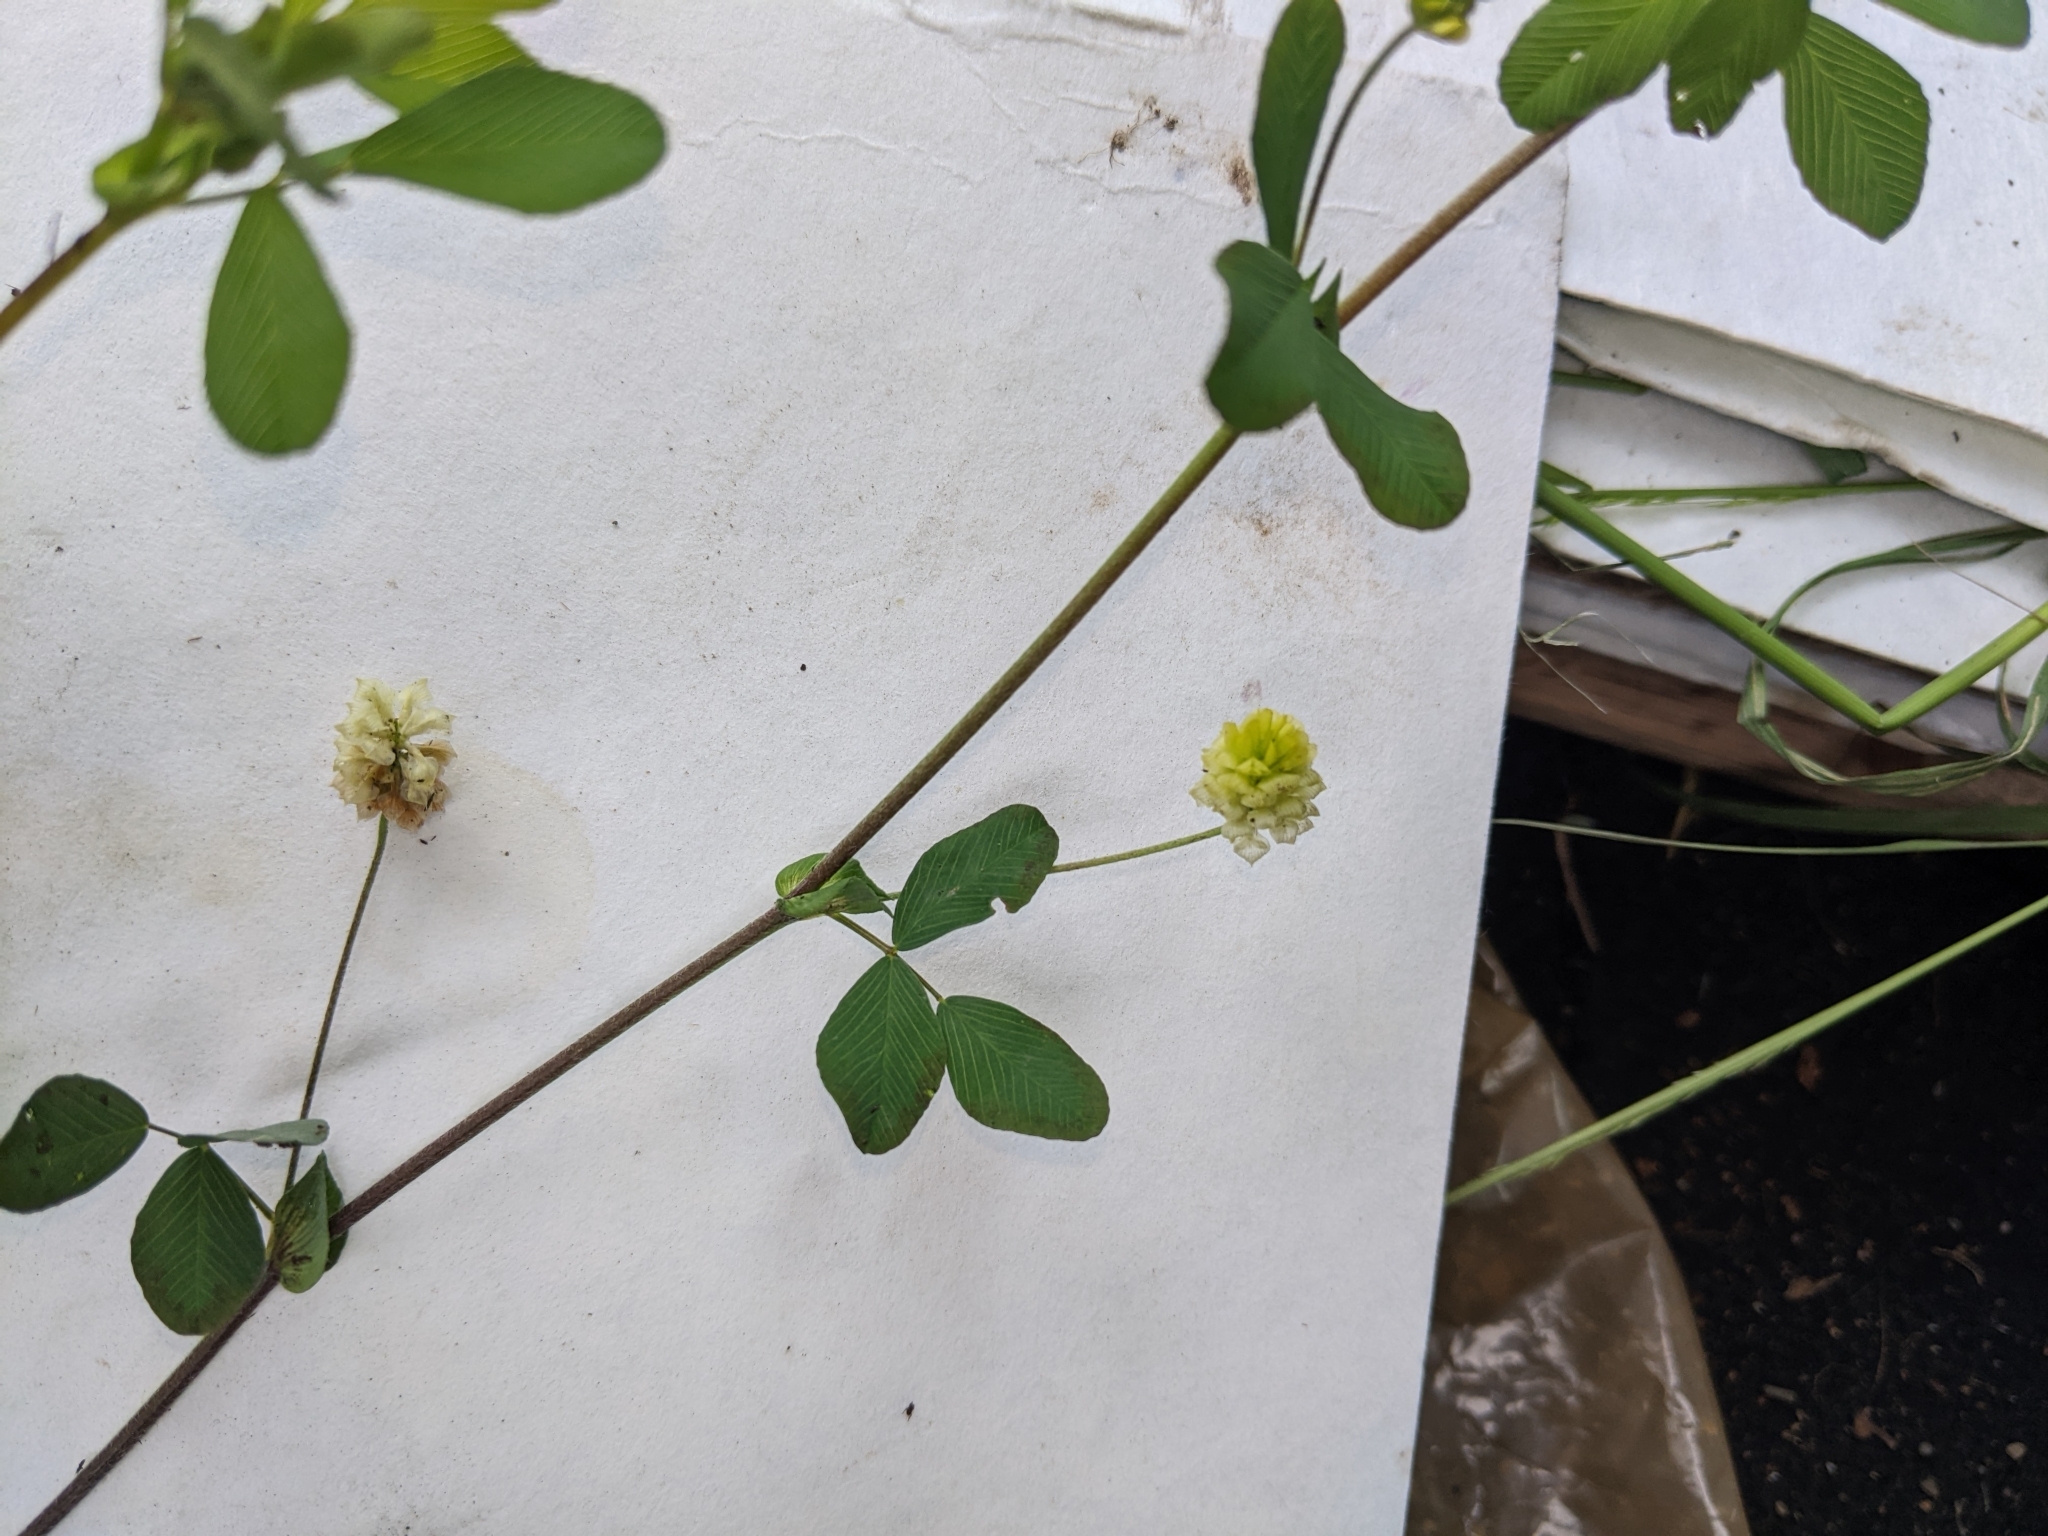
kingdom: Plantae
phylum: Tracheophyta
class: Magnoliopsida
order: Fabales
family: Fabaceae
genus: Trifolium
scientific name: Trifolium campestre
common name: Field clover
